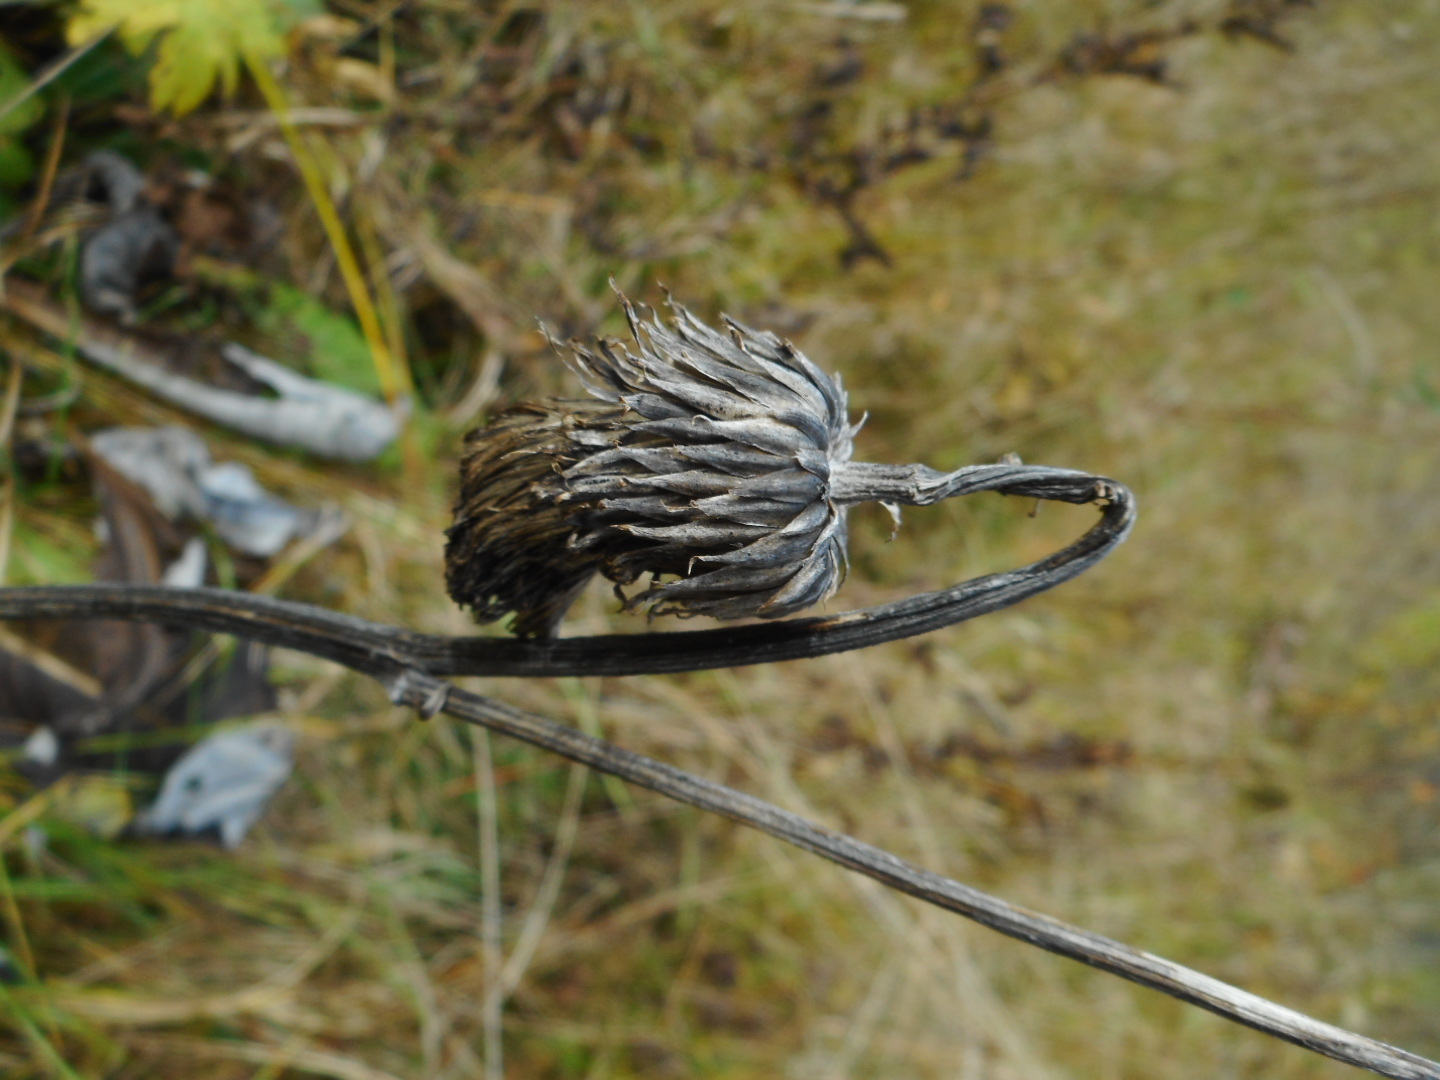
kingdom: Plantae
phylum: Tracheophyta
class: Magnoliopsida
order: Asterales
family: Asteraceae
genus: Cirsium
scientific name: Cirsium heterophyllum
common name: Melancholy thistle
